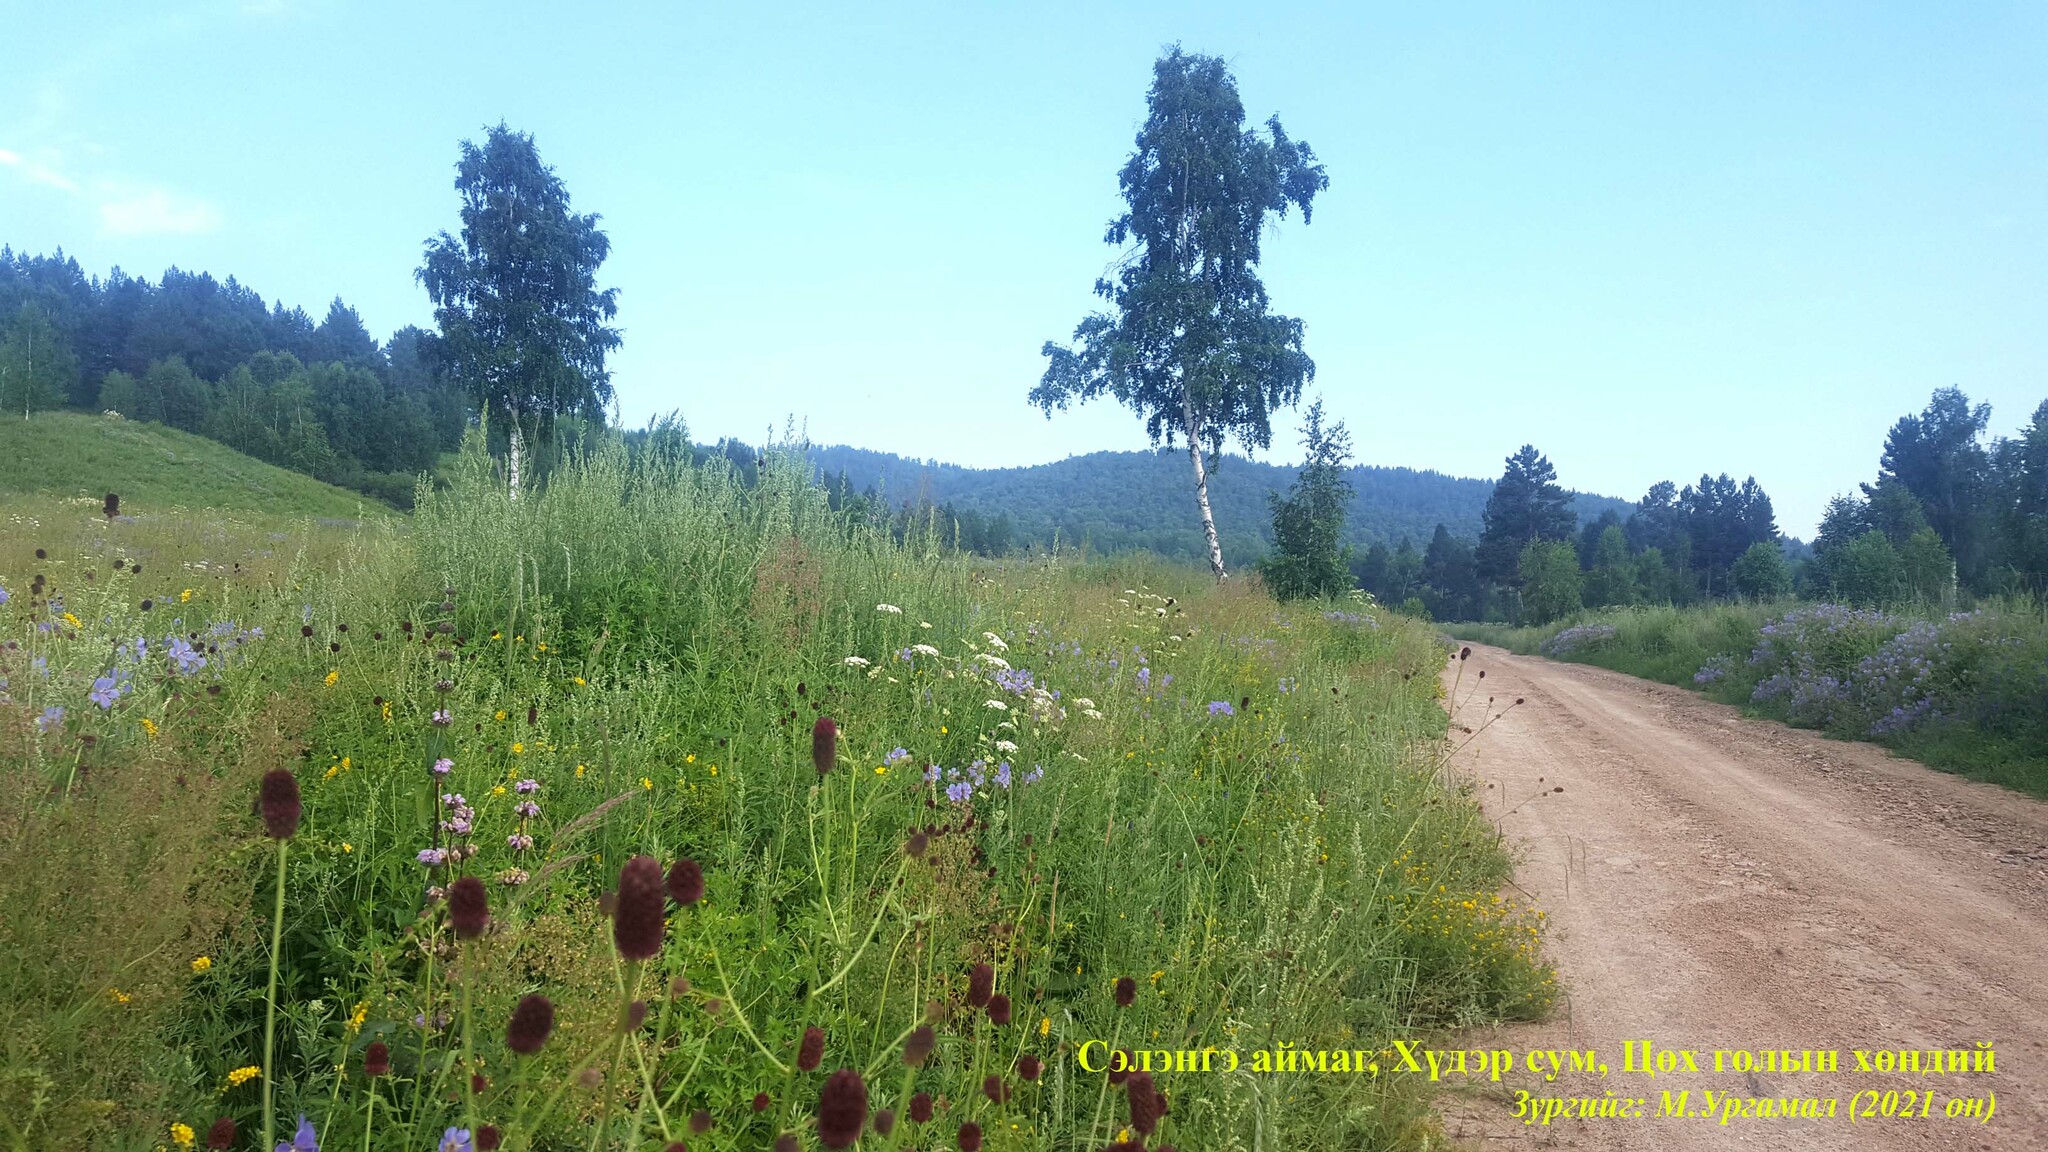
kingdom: Plantae
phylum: Tracheophyta
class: Magnoliopsida
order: Rosales
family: Rosaceae
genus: Sanguisorba
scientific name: Sanguisorba officinalis
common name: Great burnet
